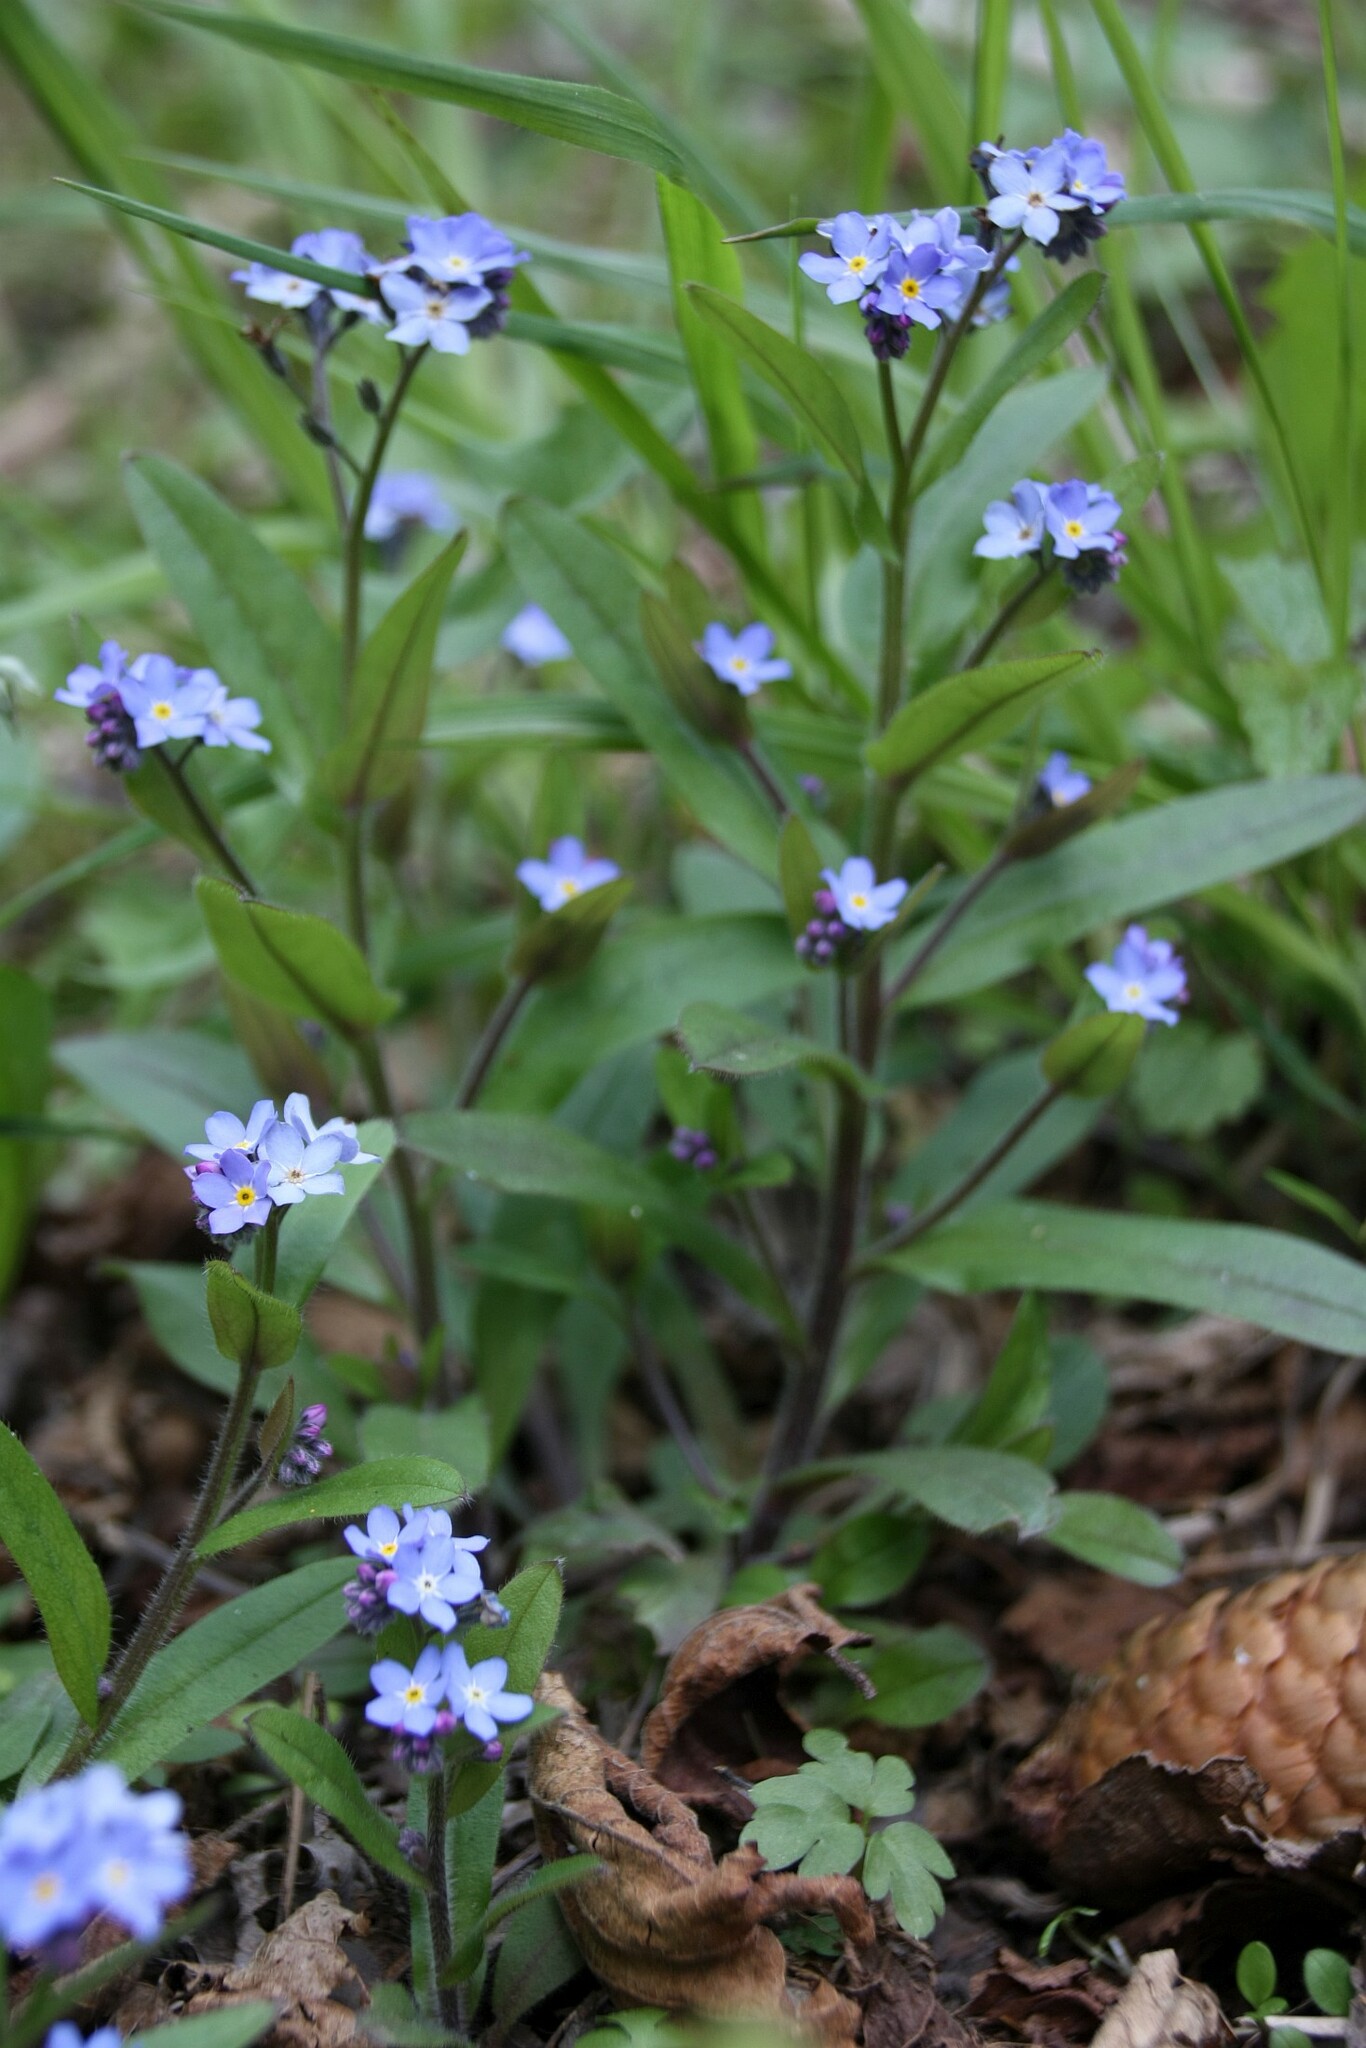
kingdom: Plantae
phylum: Tracheophyta
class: Magnoliopsida
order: Boraginales
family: Boraginaceae
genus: Myosotis
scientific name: Myosotis sylvatica
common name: Wood forget-me-not
